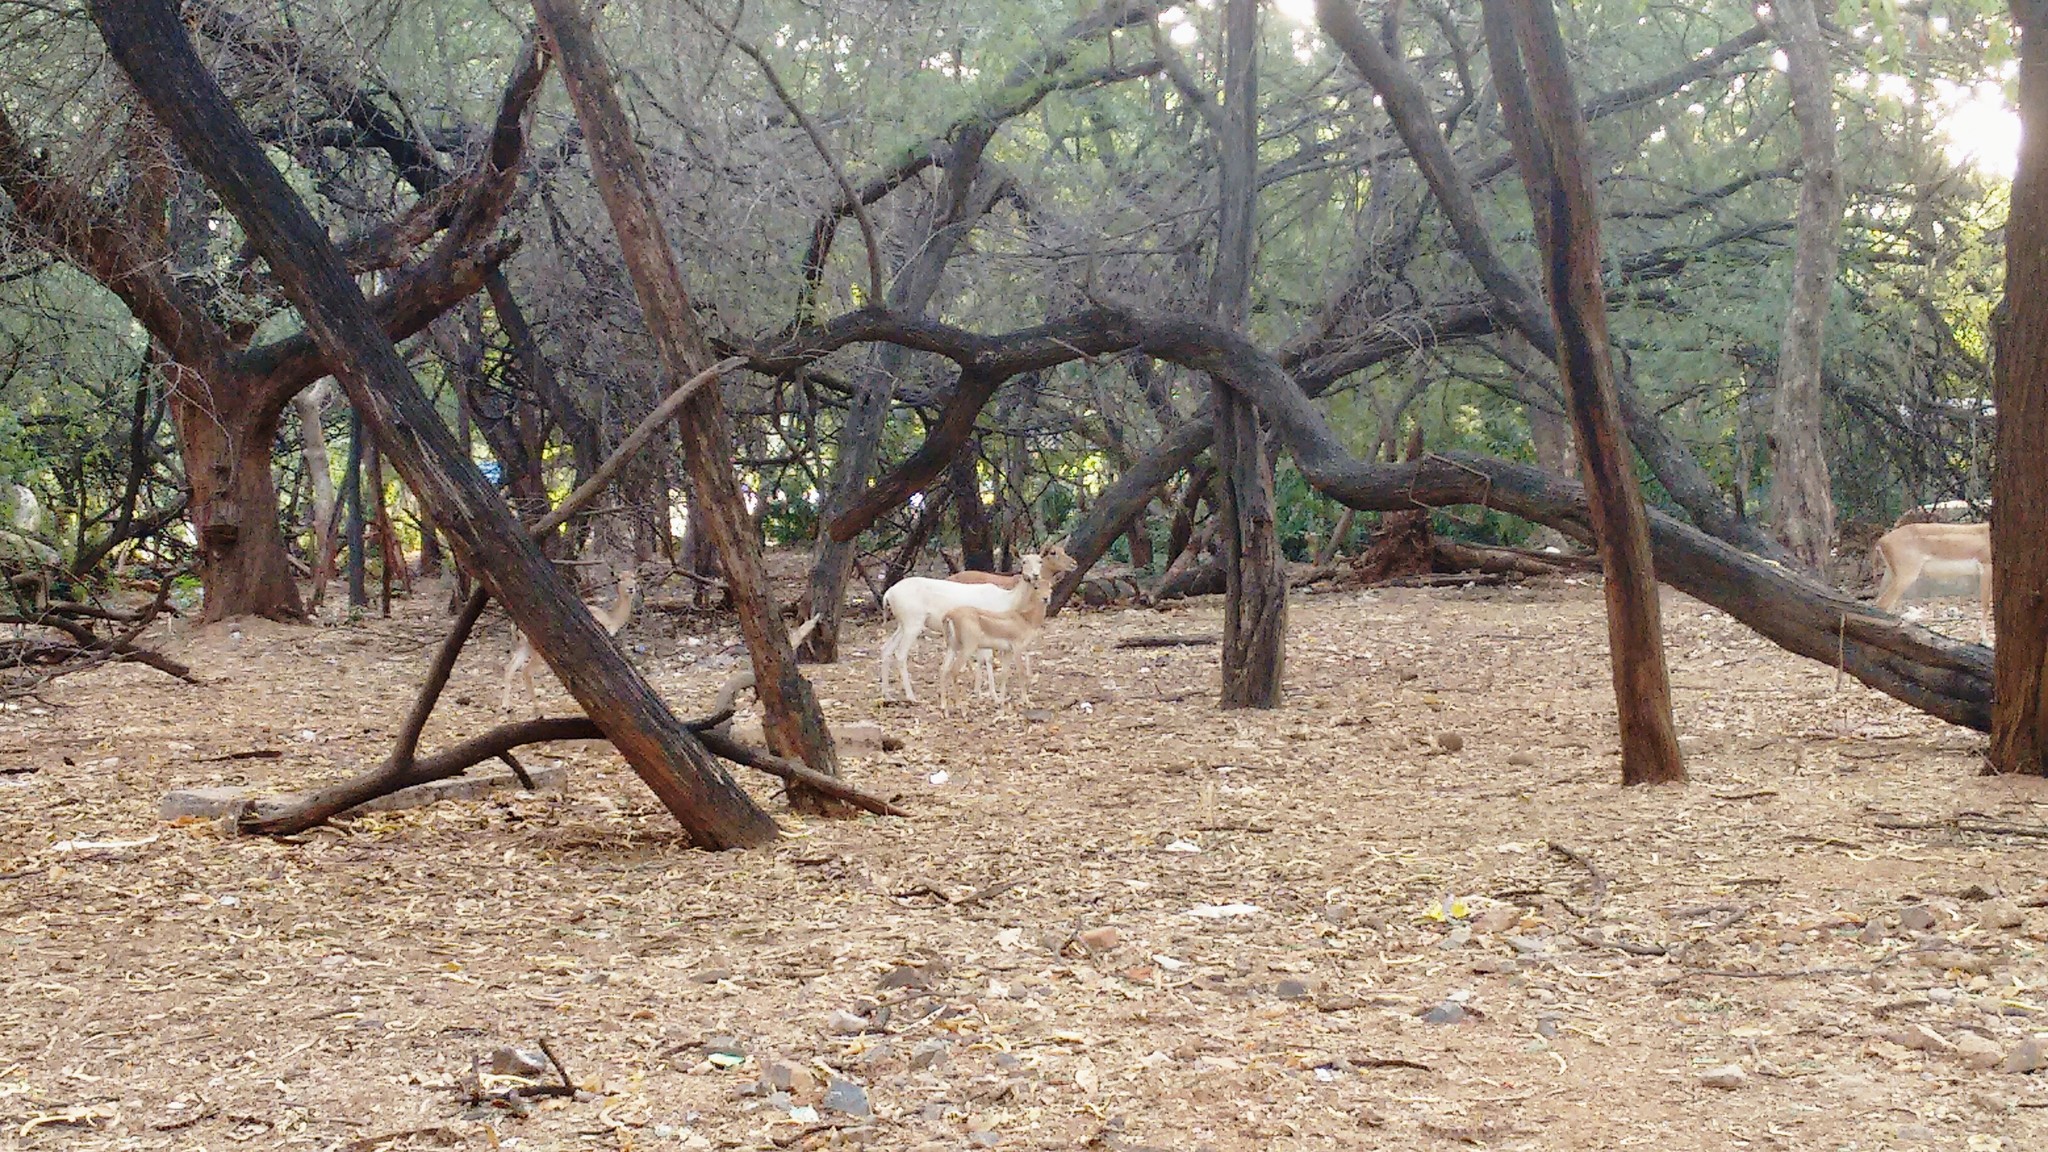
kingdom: Animalia
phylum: Chordata
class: Mammalia
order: Artiodactyla
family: Bovidae
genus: Antilope
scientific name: Antilope cervicapra
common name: Blackbuck
